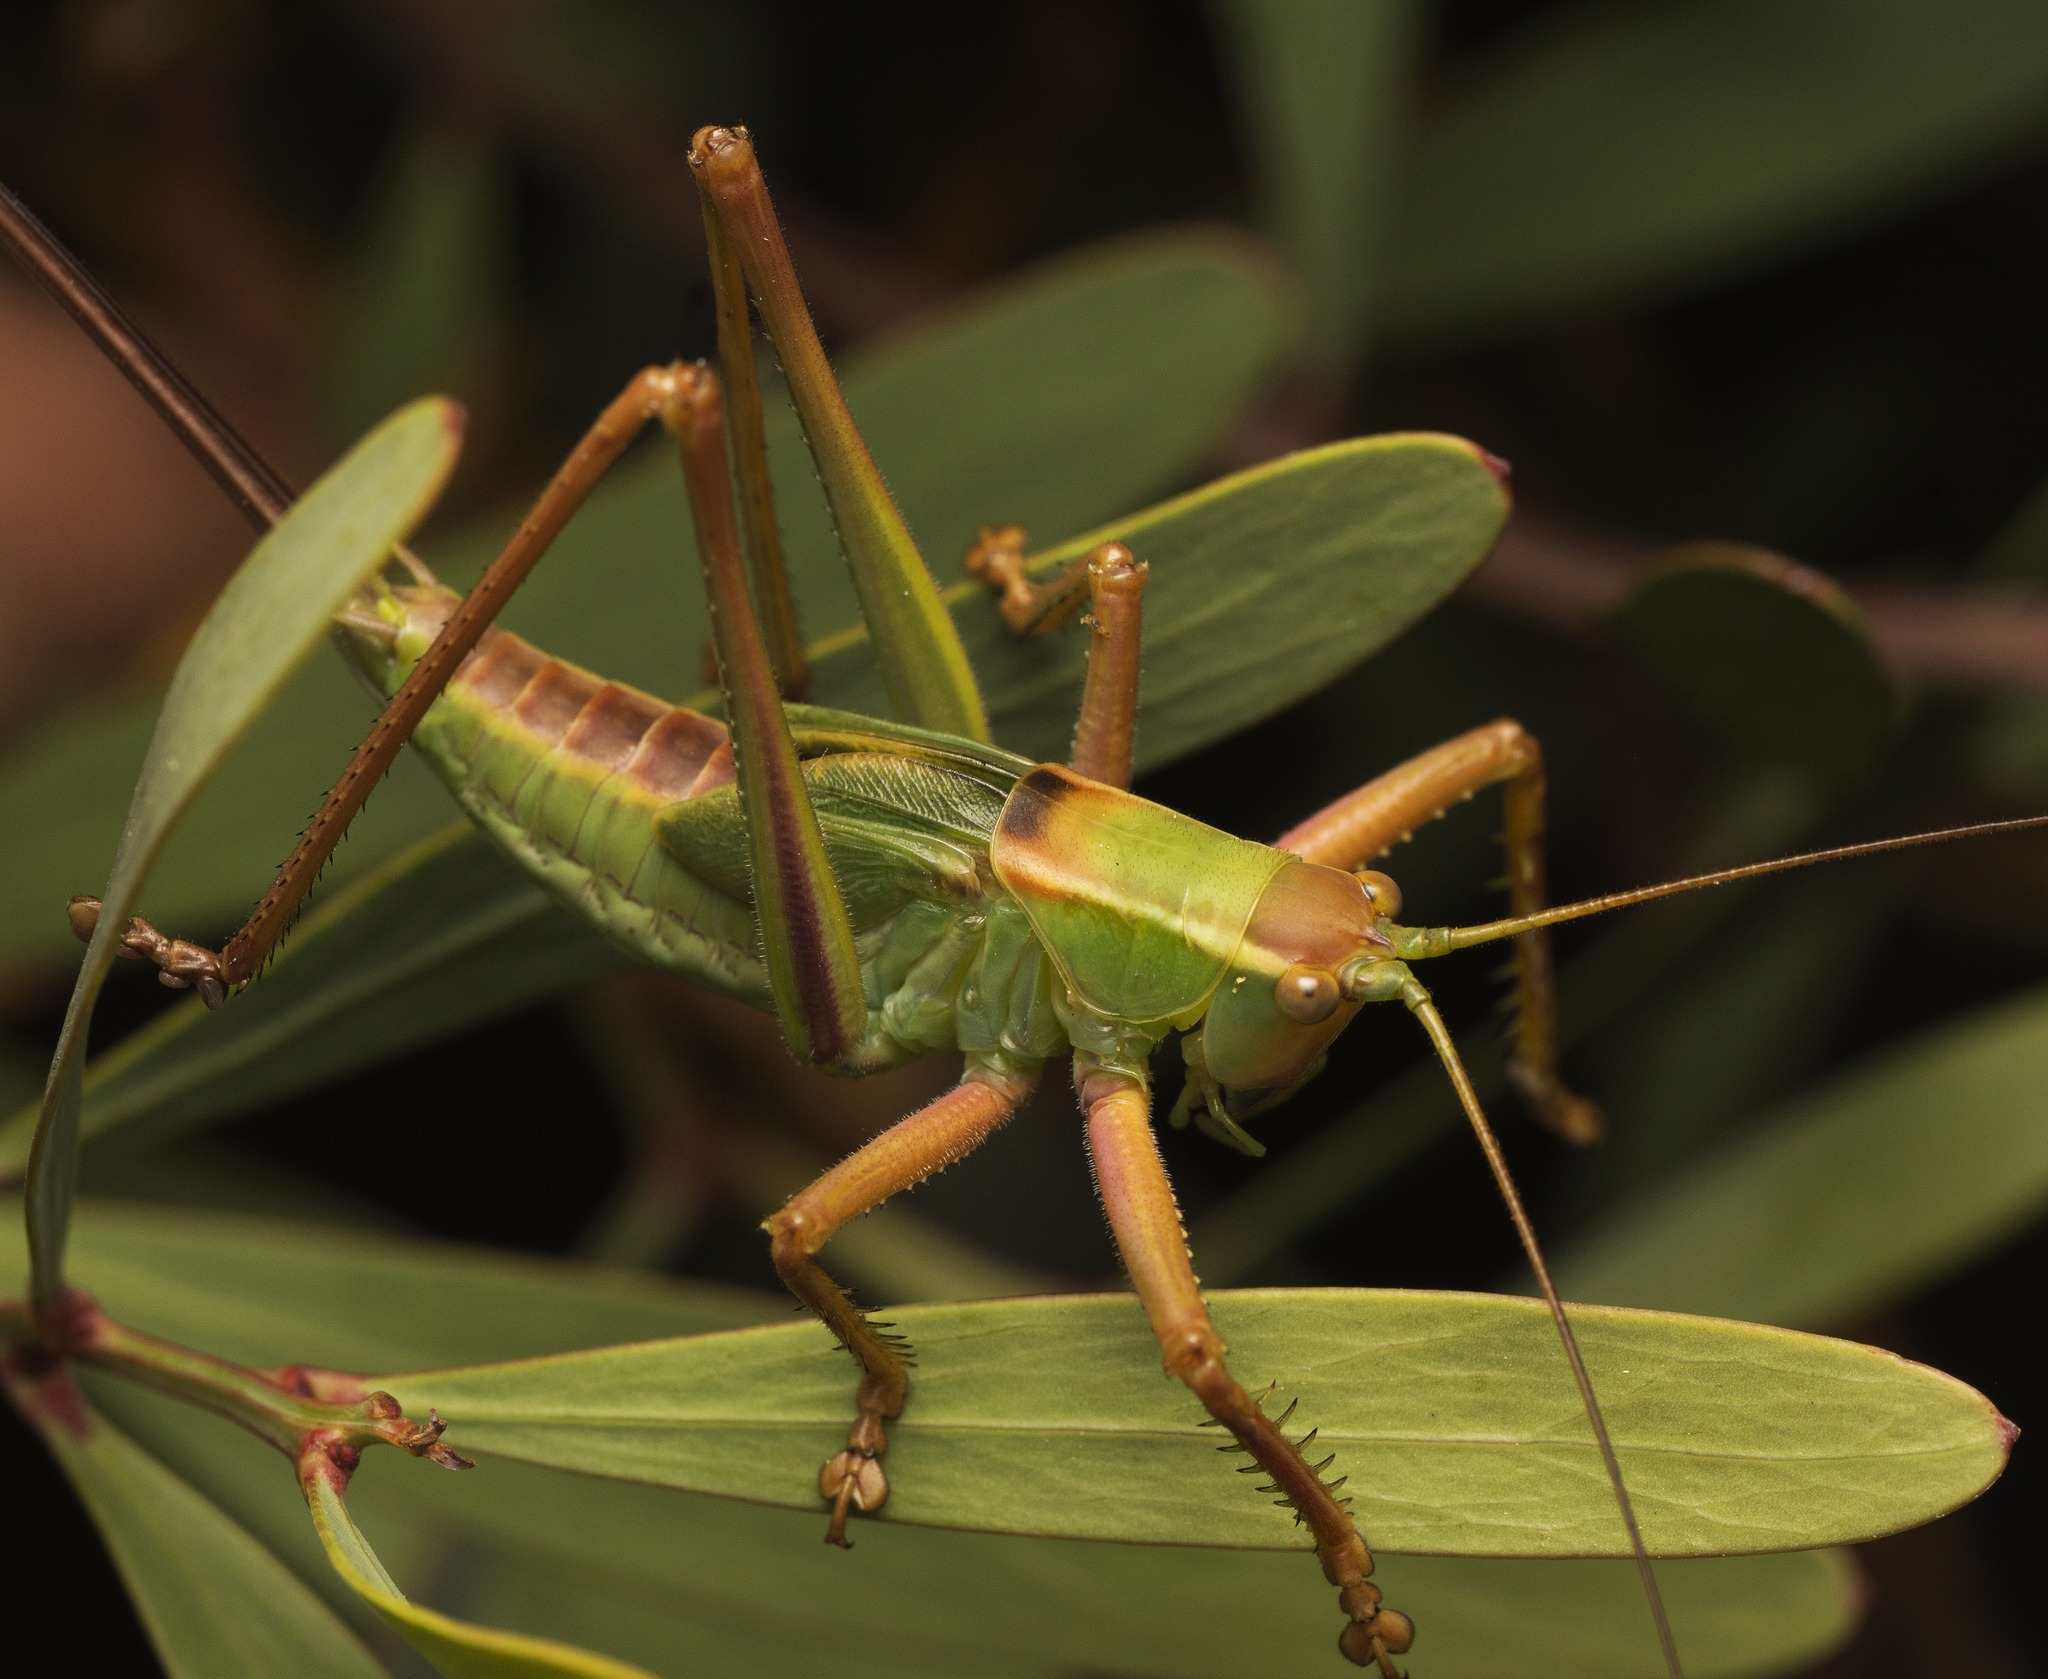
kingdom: Animalia
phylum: Arthropoda
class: Insecta
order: Orthoptera
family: Tettigoniidae
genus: Terpandrus
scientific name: Terpandrus jumbunna
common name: Jumbunna gumleaf katydid
